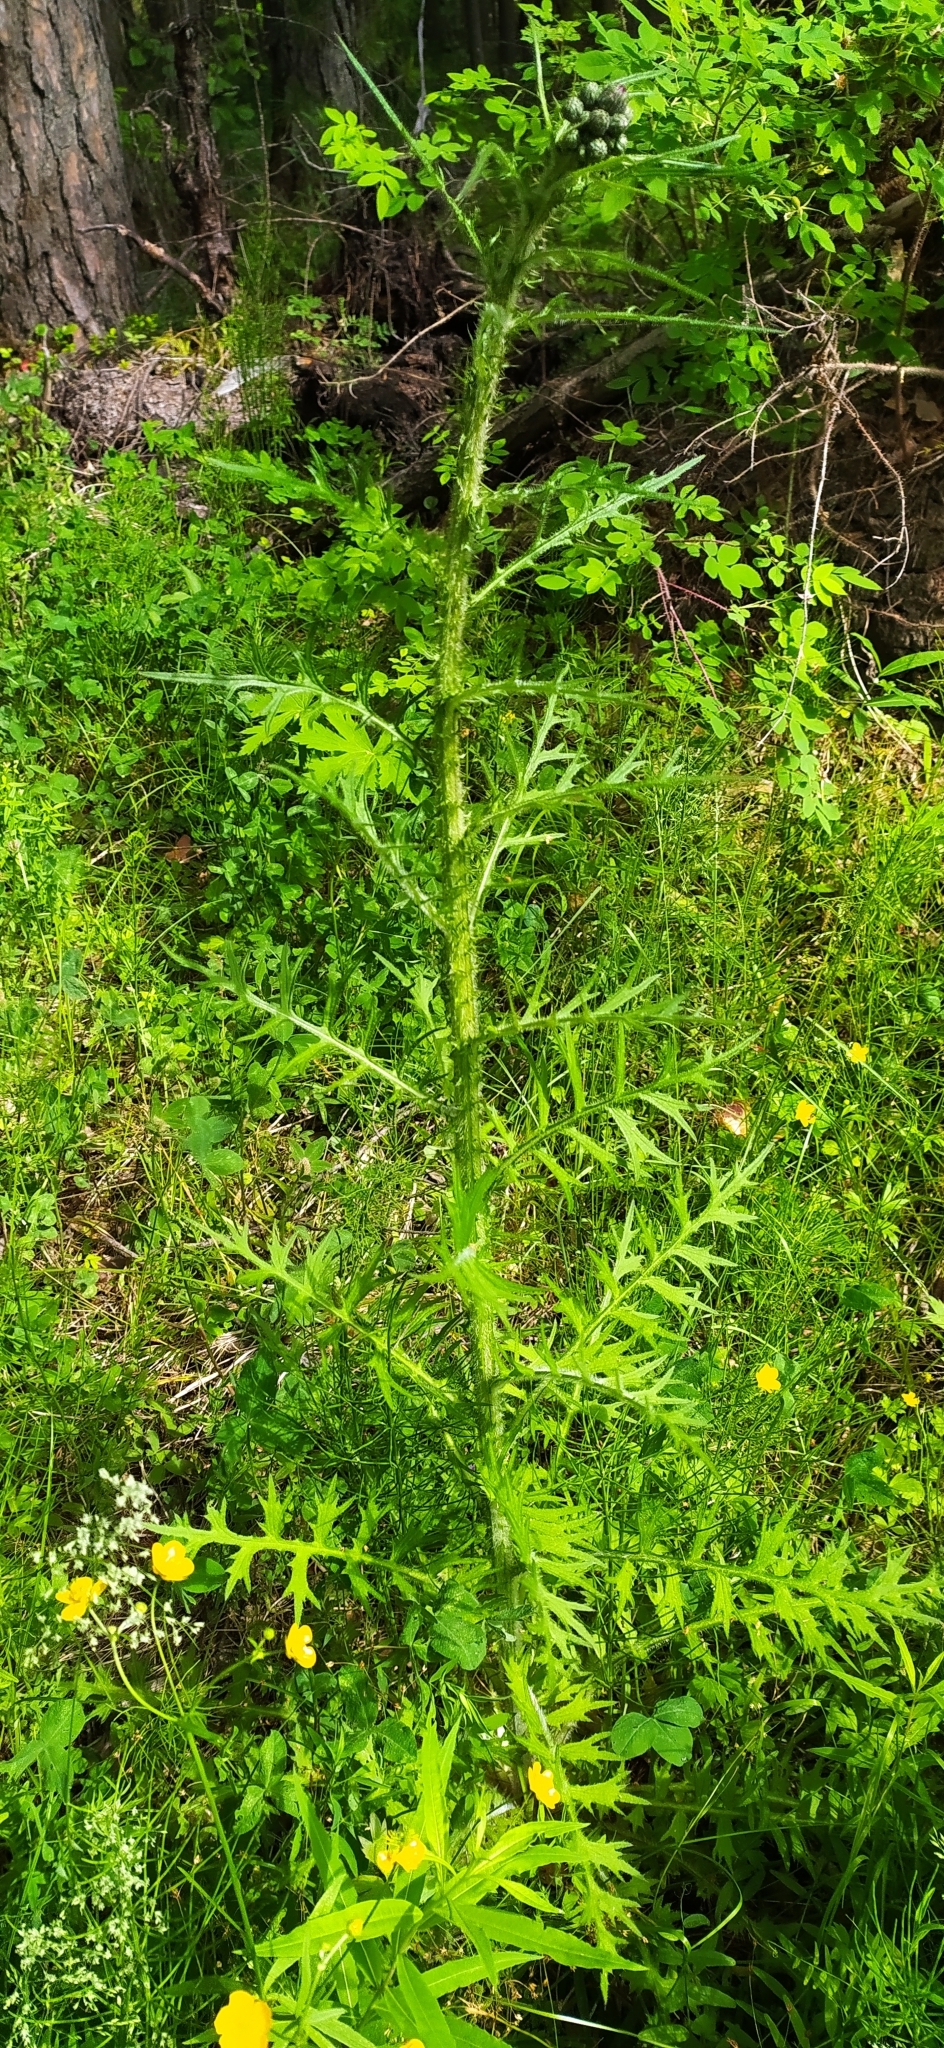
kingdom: Plantae
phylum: Tracheophyta
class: Magnoliopsida
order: Asterales
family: Asteraceae
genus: Cirsium
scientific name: Cirsium palustre
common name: Marsh thistle
